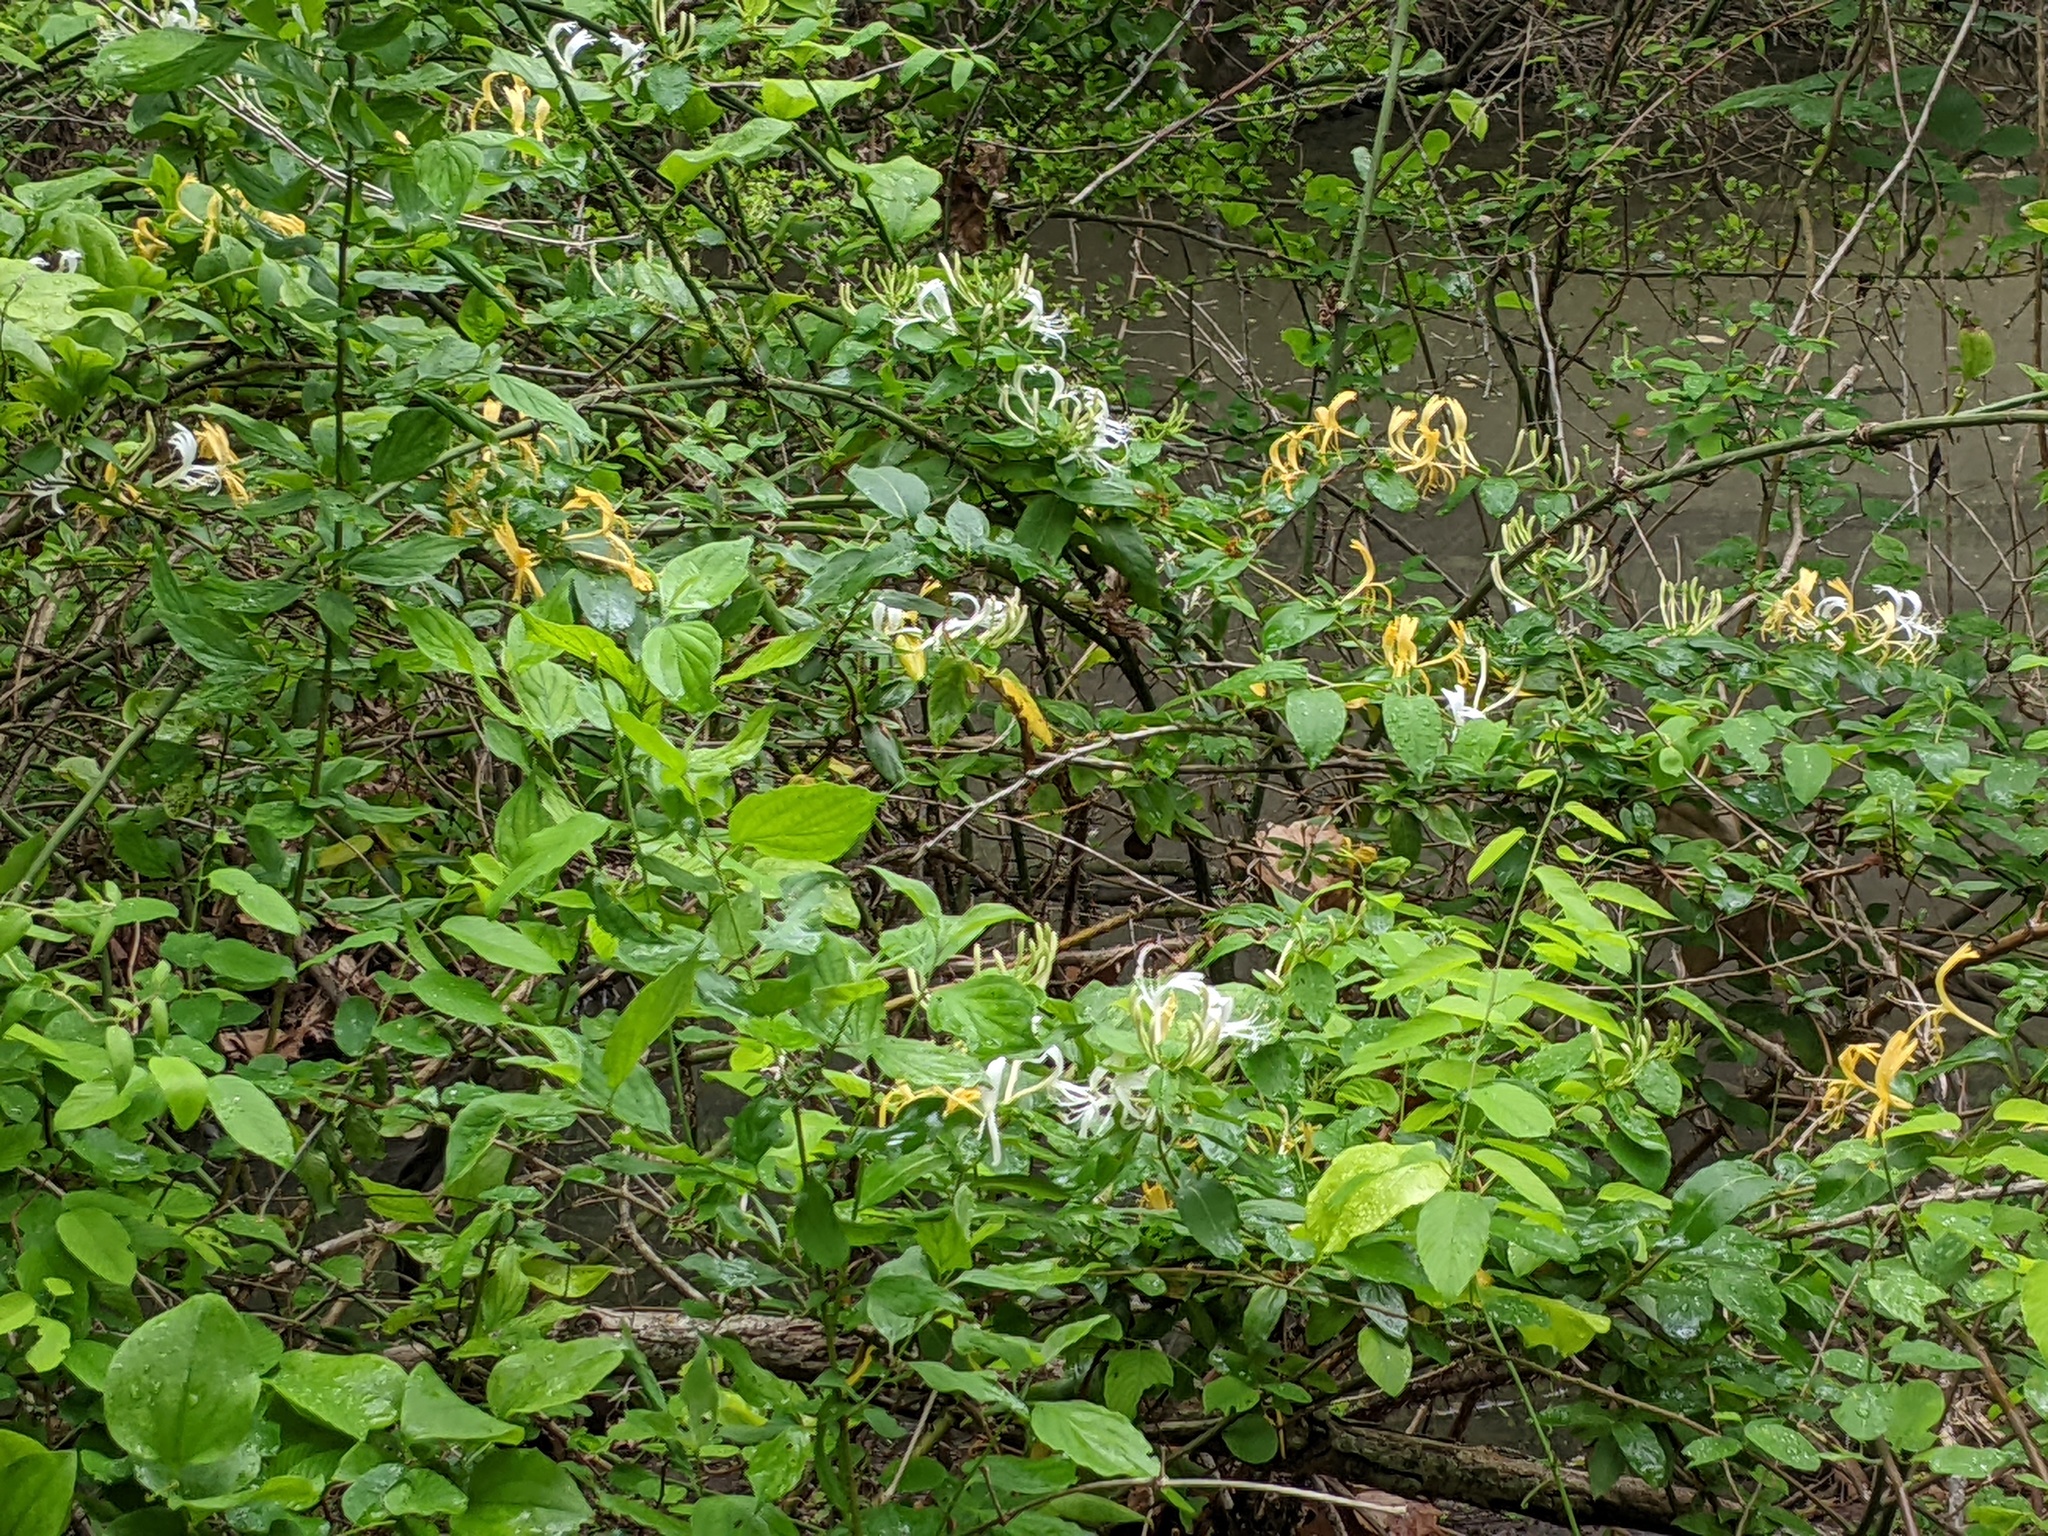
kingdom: Plantae
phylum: Tracheophyta
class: Magnoliopsida
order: Dipsacales
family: Caprifoliaceae
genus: Lonicera
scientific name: Lonicera japonica
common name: Japanese honeysuckle
